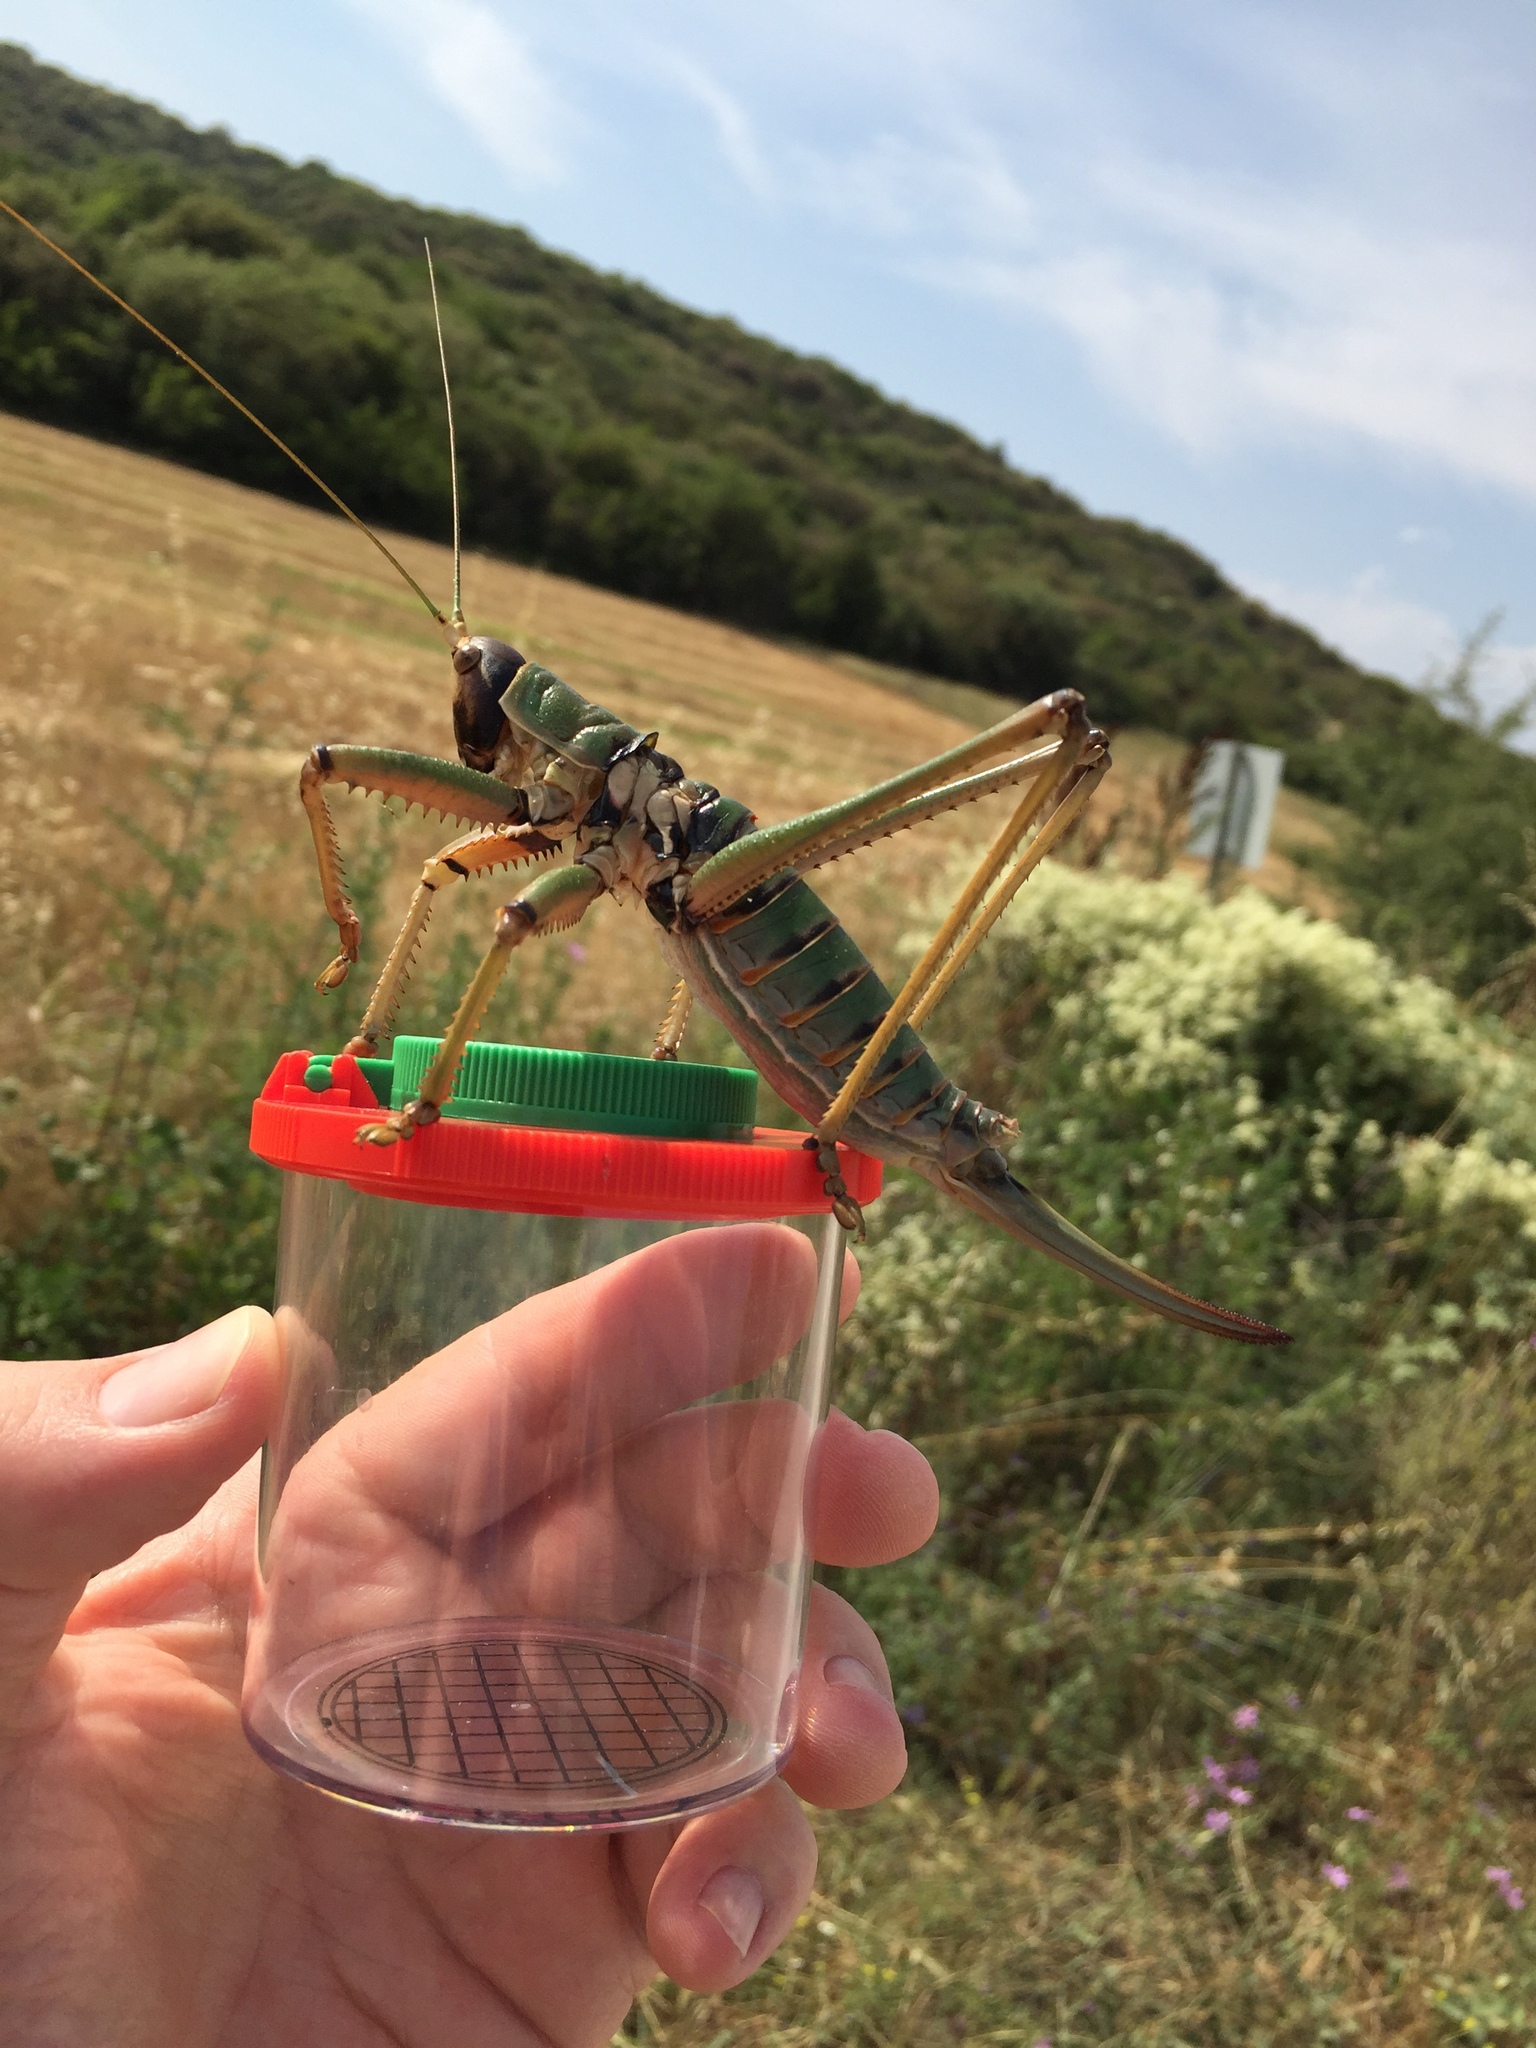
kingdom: Animalia
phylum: Arthropoda
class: Insecta
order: Orthoptera
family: Tettigoniidae
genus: Saga
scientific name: Saga natoliae
